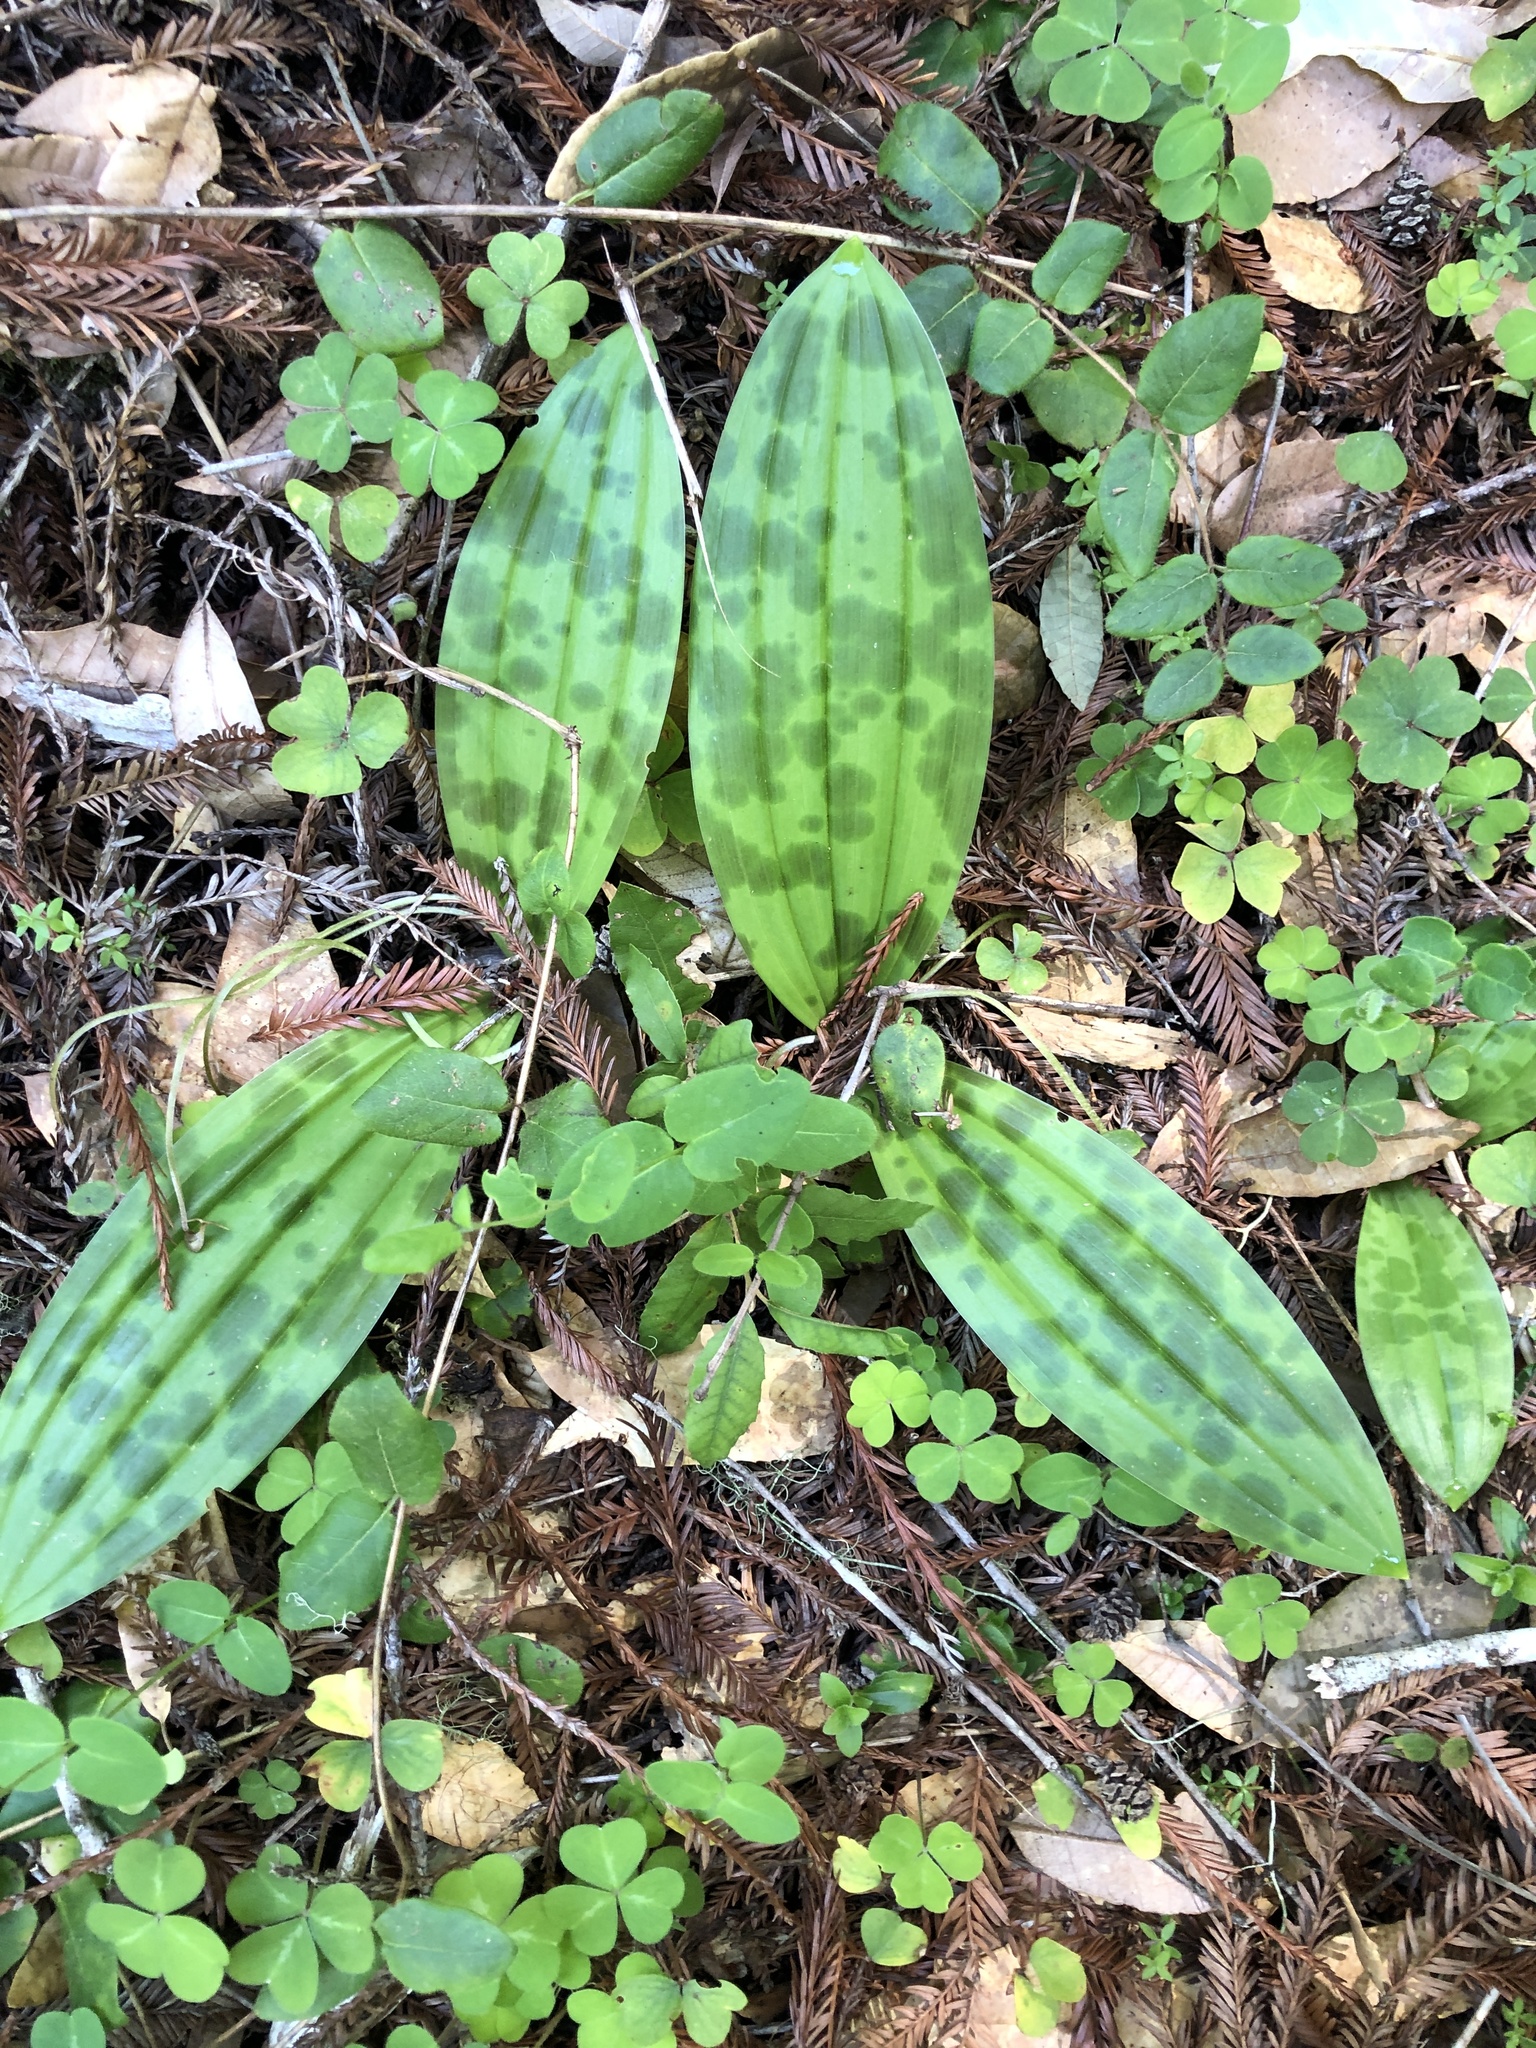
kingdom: Plantae
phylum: Tracheophyta
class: Liliopsida
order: Liliales
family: Liliaceae
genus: Scoliopus
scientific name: Scoliopus bigelovii
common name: Foetid adder's-tongue
